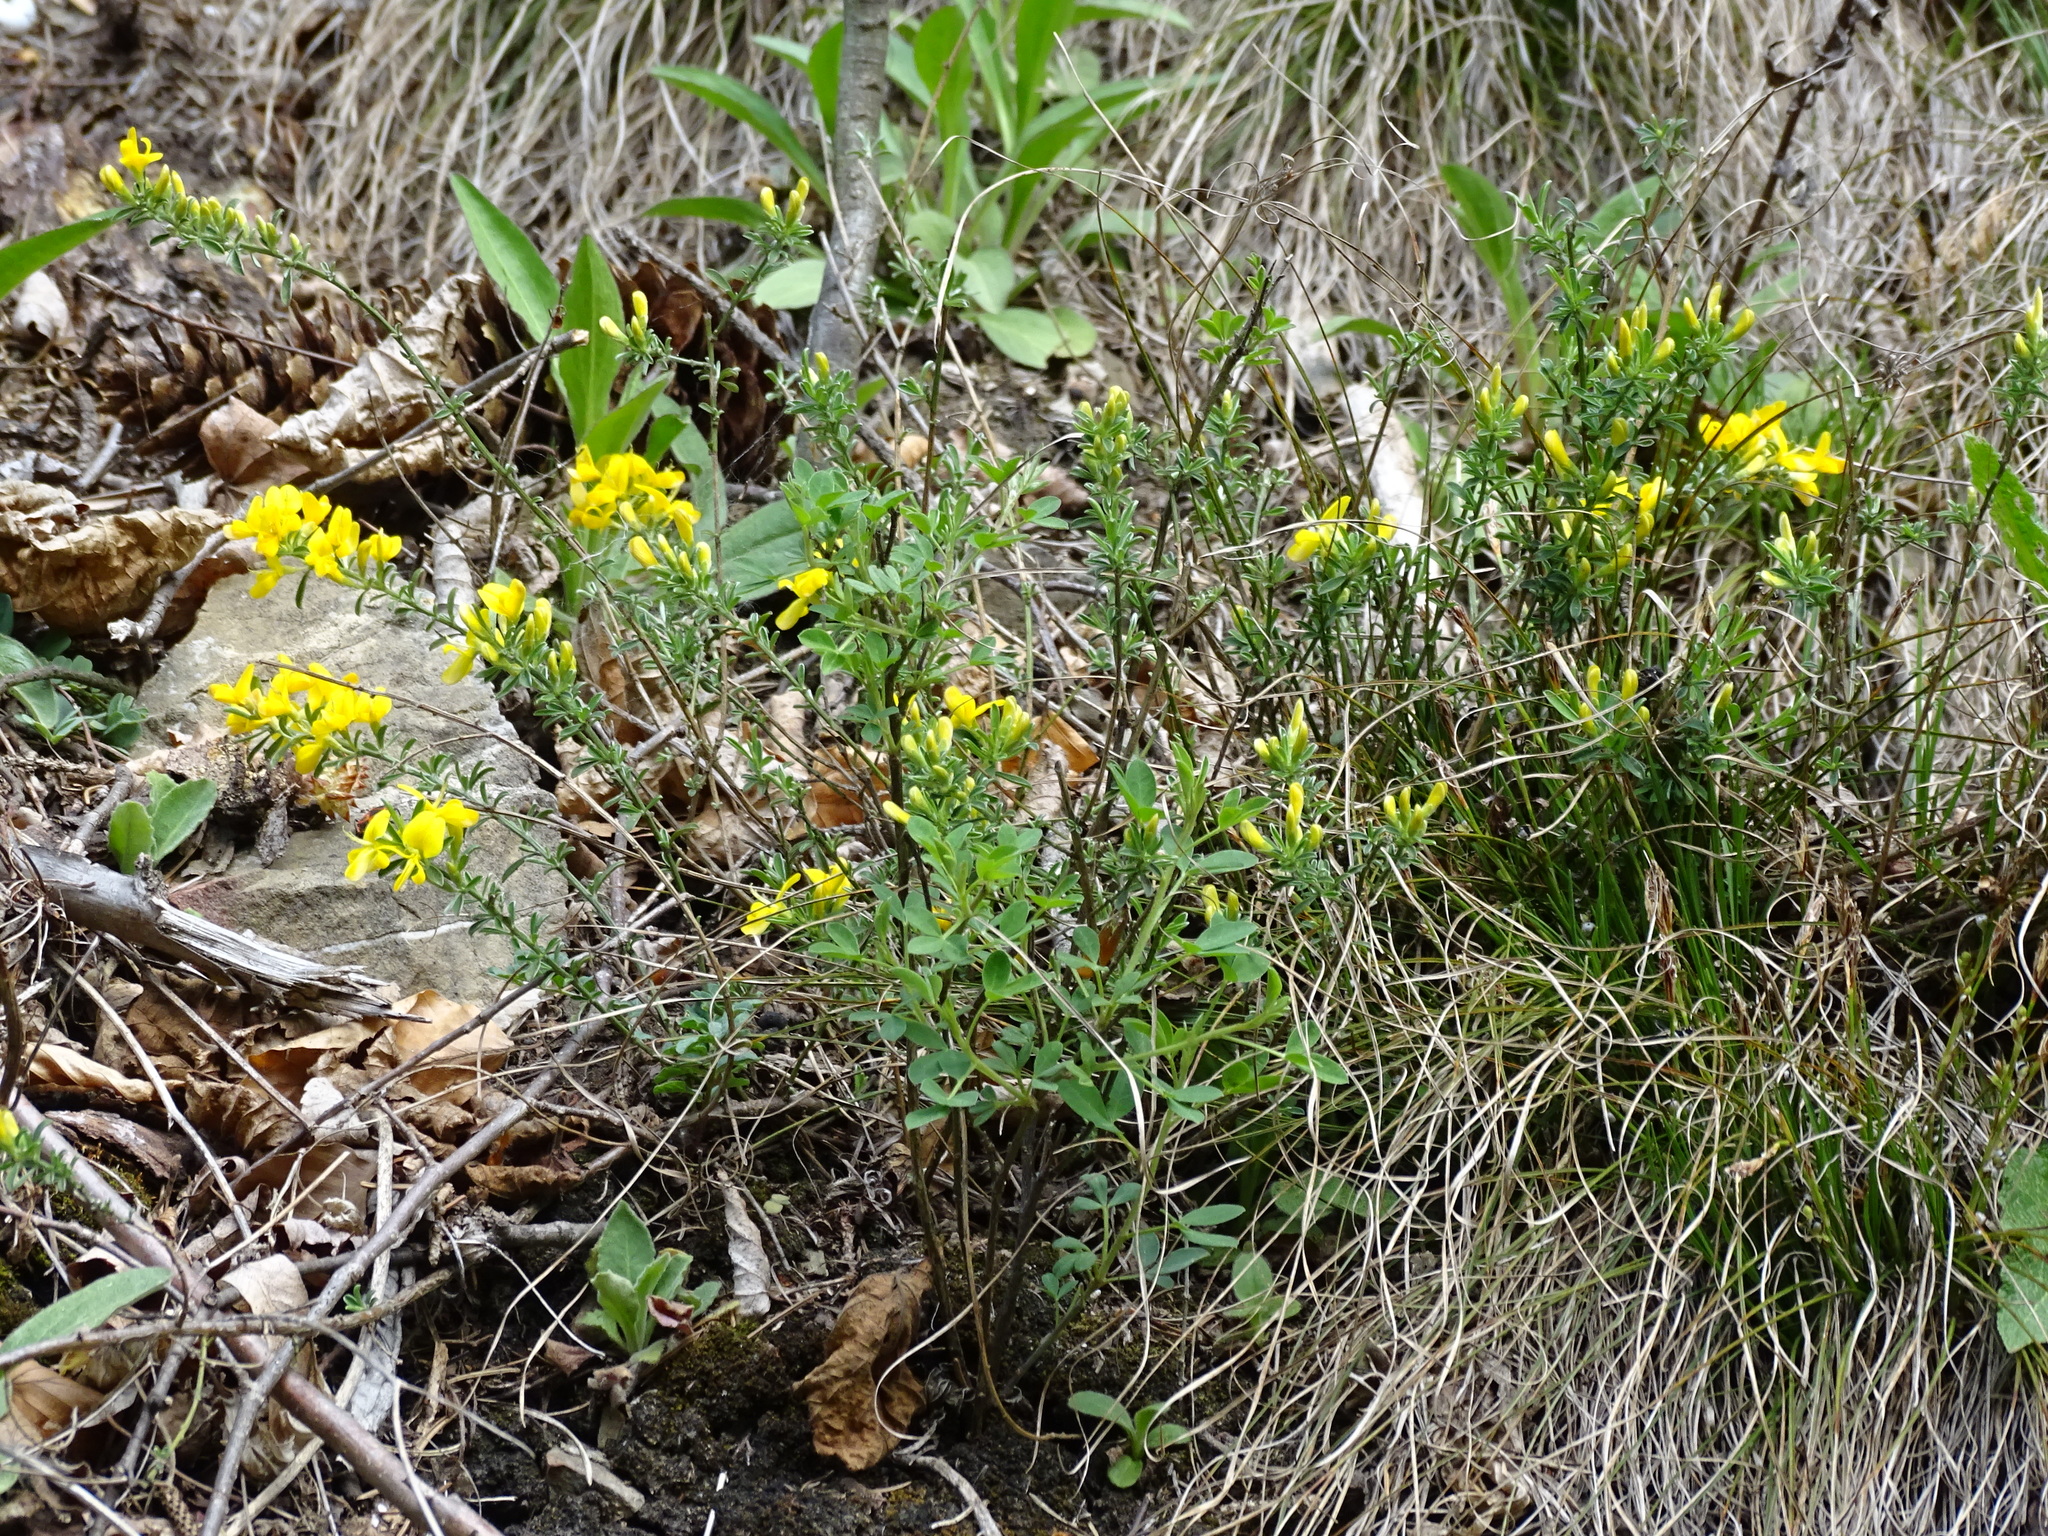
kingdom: Plantae
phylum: Tracheophyta
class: Magnoliopsida
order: Fabales
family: Fabaceae
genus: Genista
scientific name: Genista pilosa
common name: Hairy greenweed
